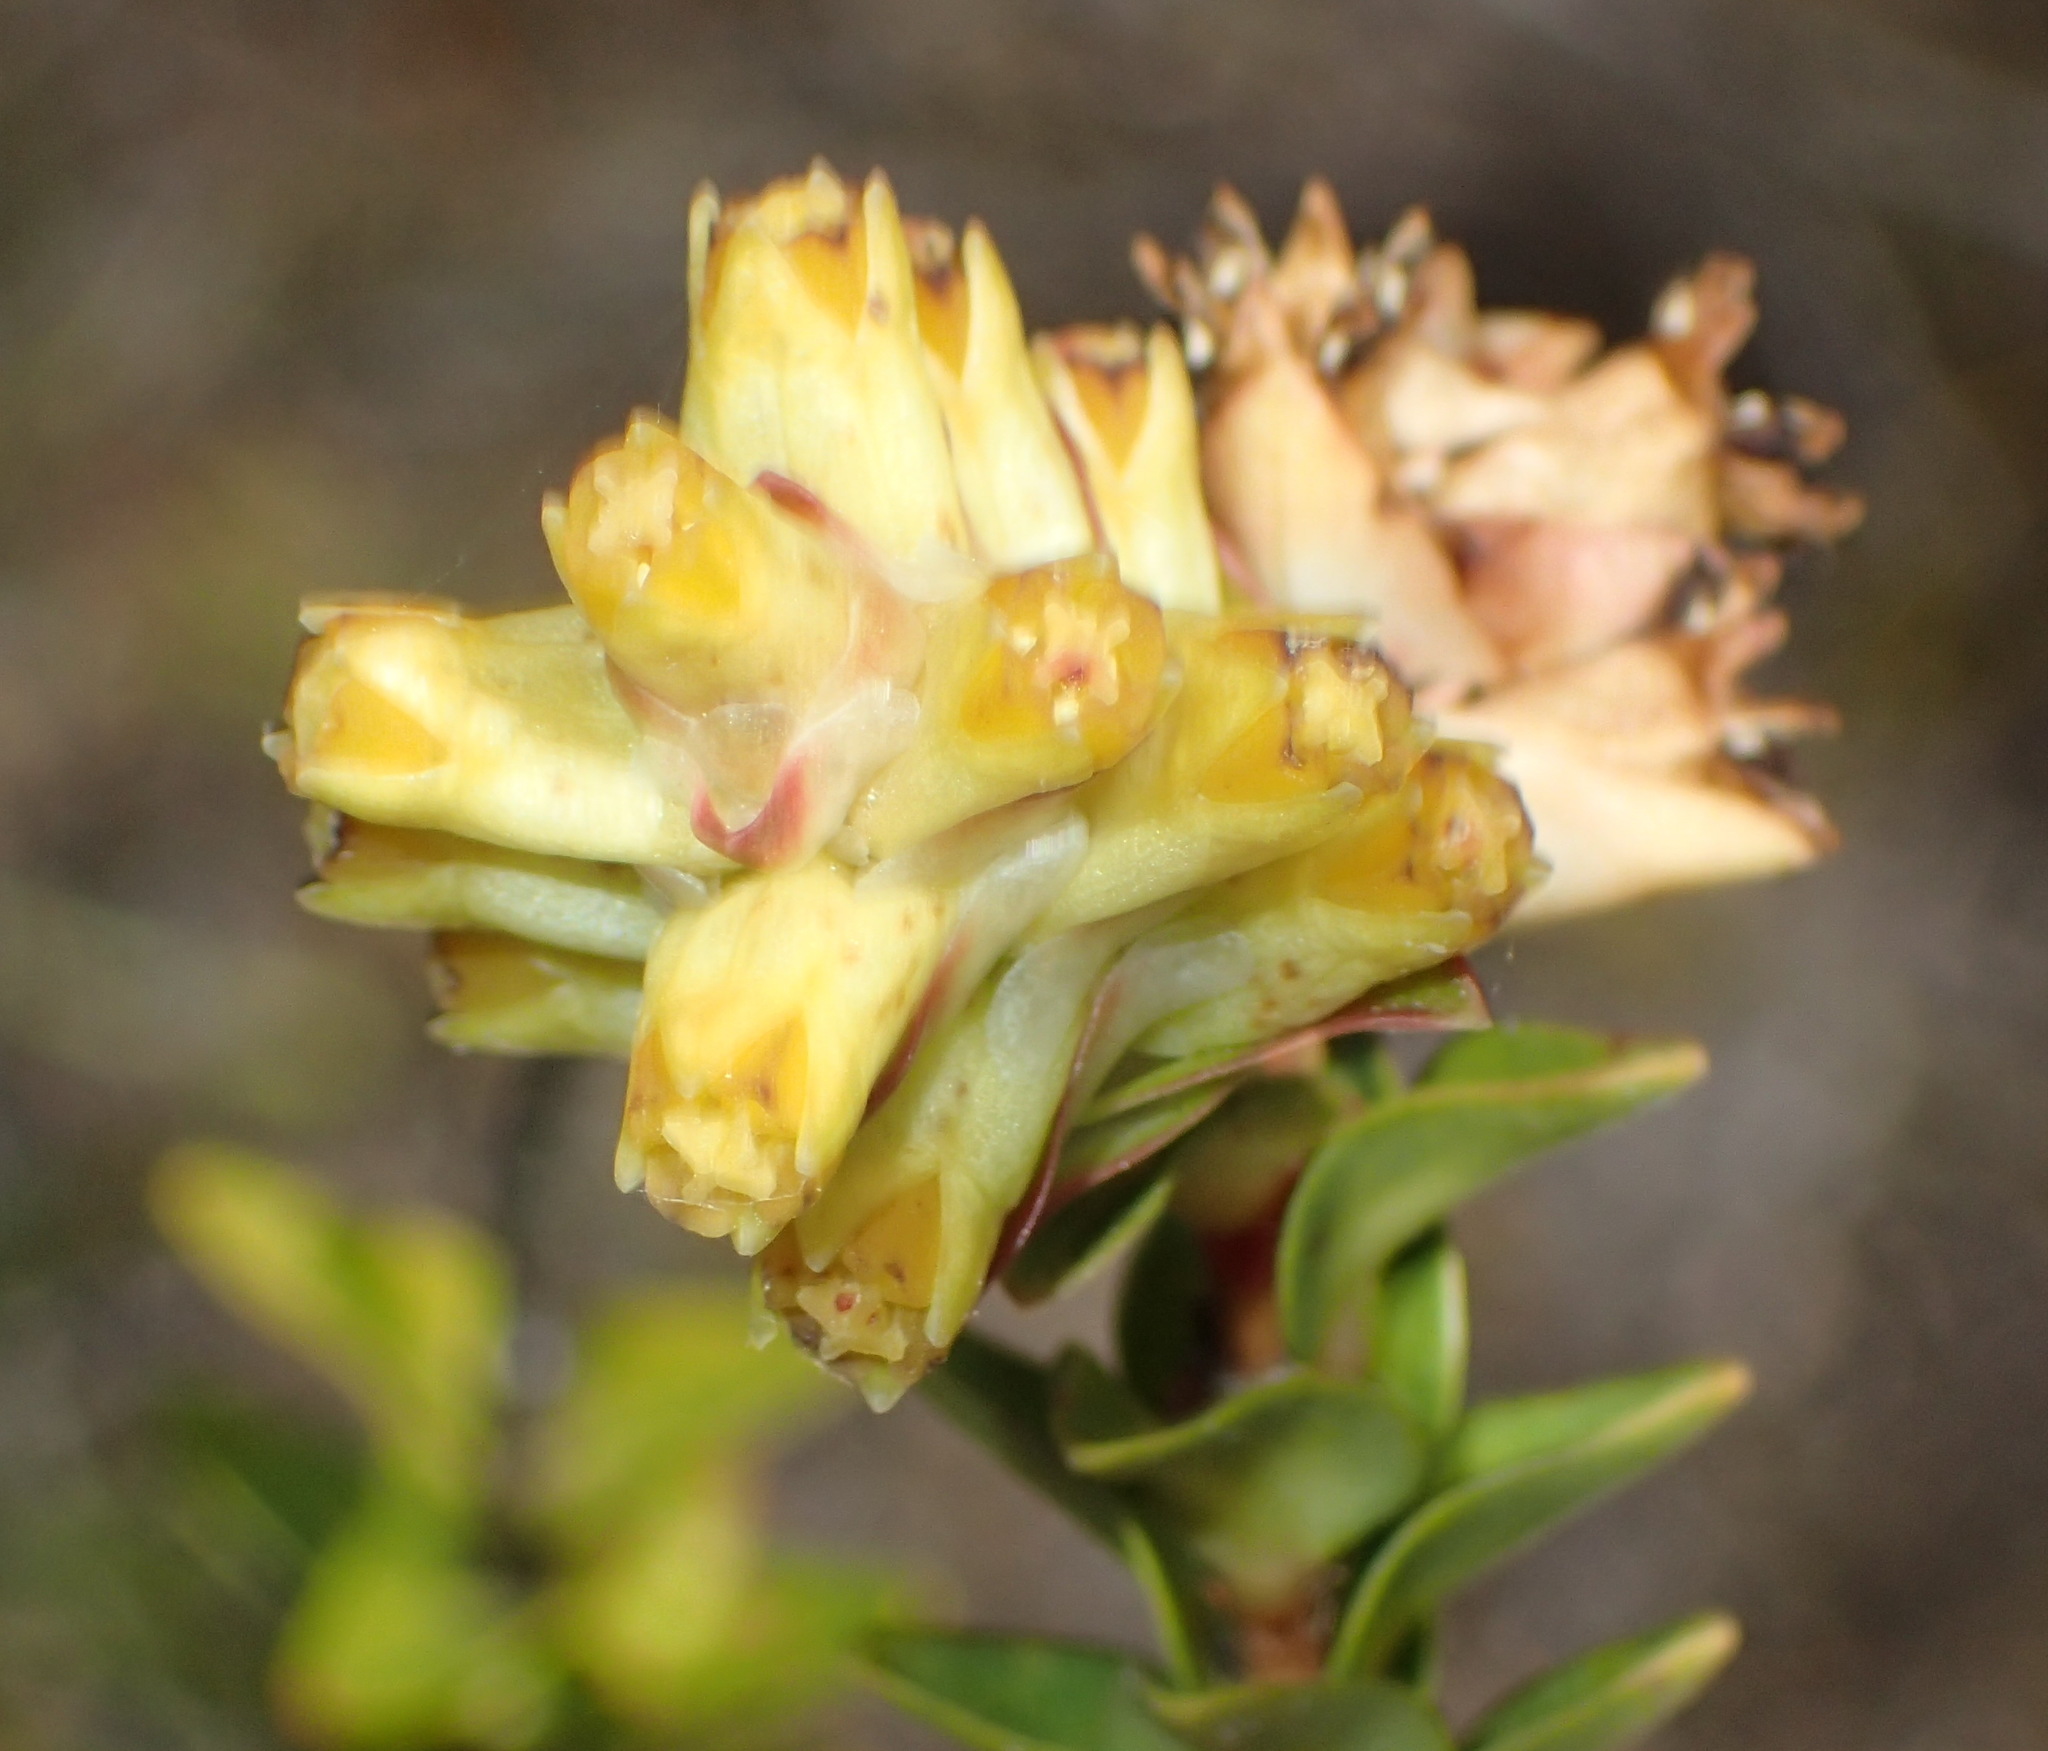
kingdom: Plantae
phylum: Tracheophyta
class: Magnoliopsida
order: Myrtales
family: Penaeaceae
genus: Penaea
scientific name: Penaea cneorum
